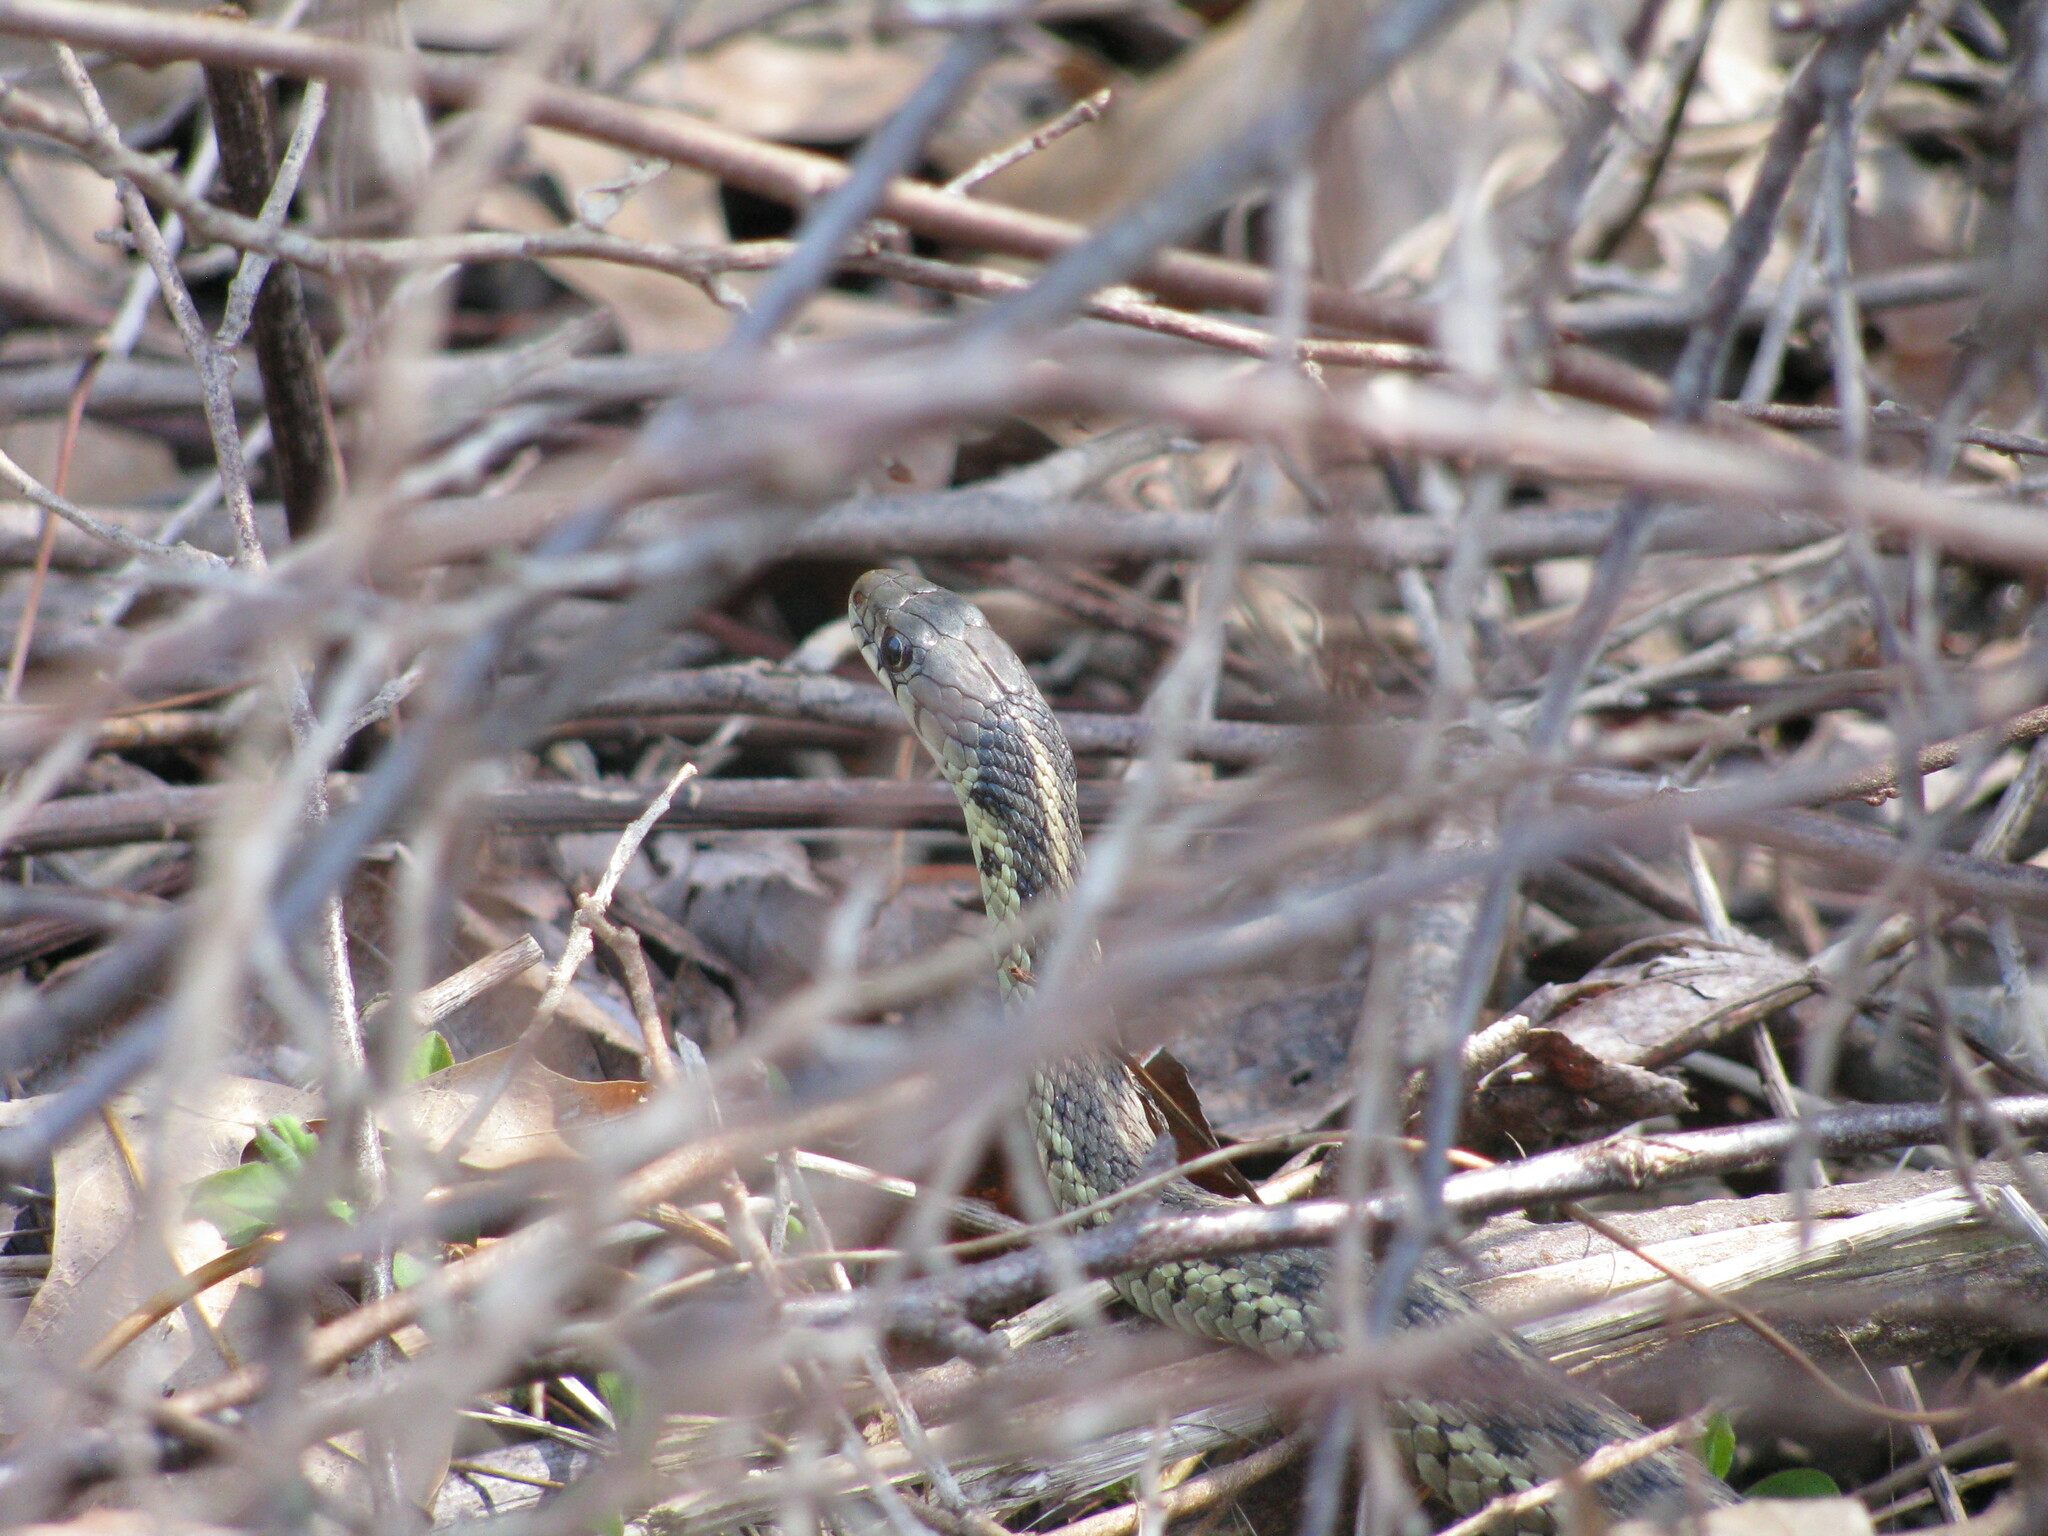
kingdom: Animalia
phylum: Chordata
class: Squamata
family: Colubridae
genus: Thamnophis
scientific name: Thamnophis sirtalis
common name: Common garter snake
